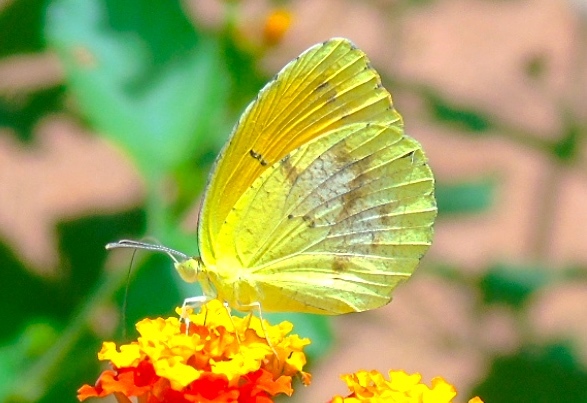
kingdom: Animalia
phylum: Arthropoda
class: Insecta
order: Lepidoptera
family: Pieridae
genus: Abaeis
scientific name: Abaeis nicippe
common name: Sleepy orange
